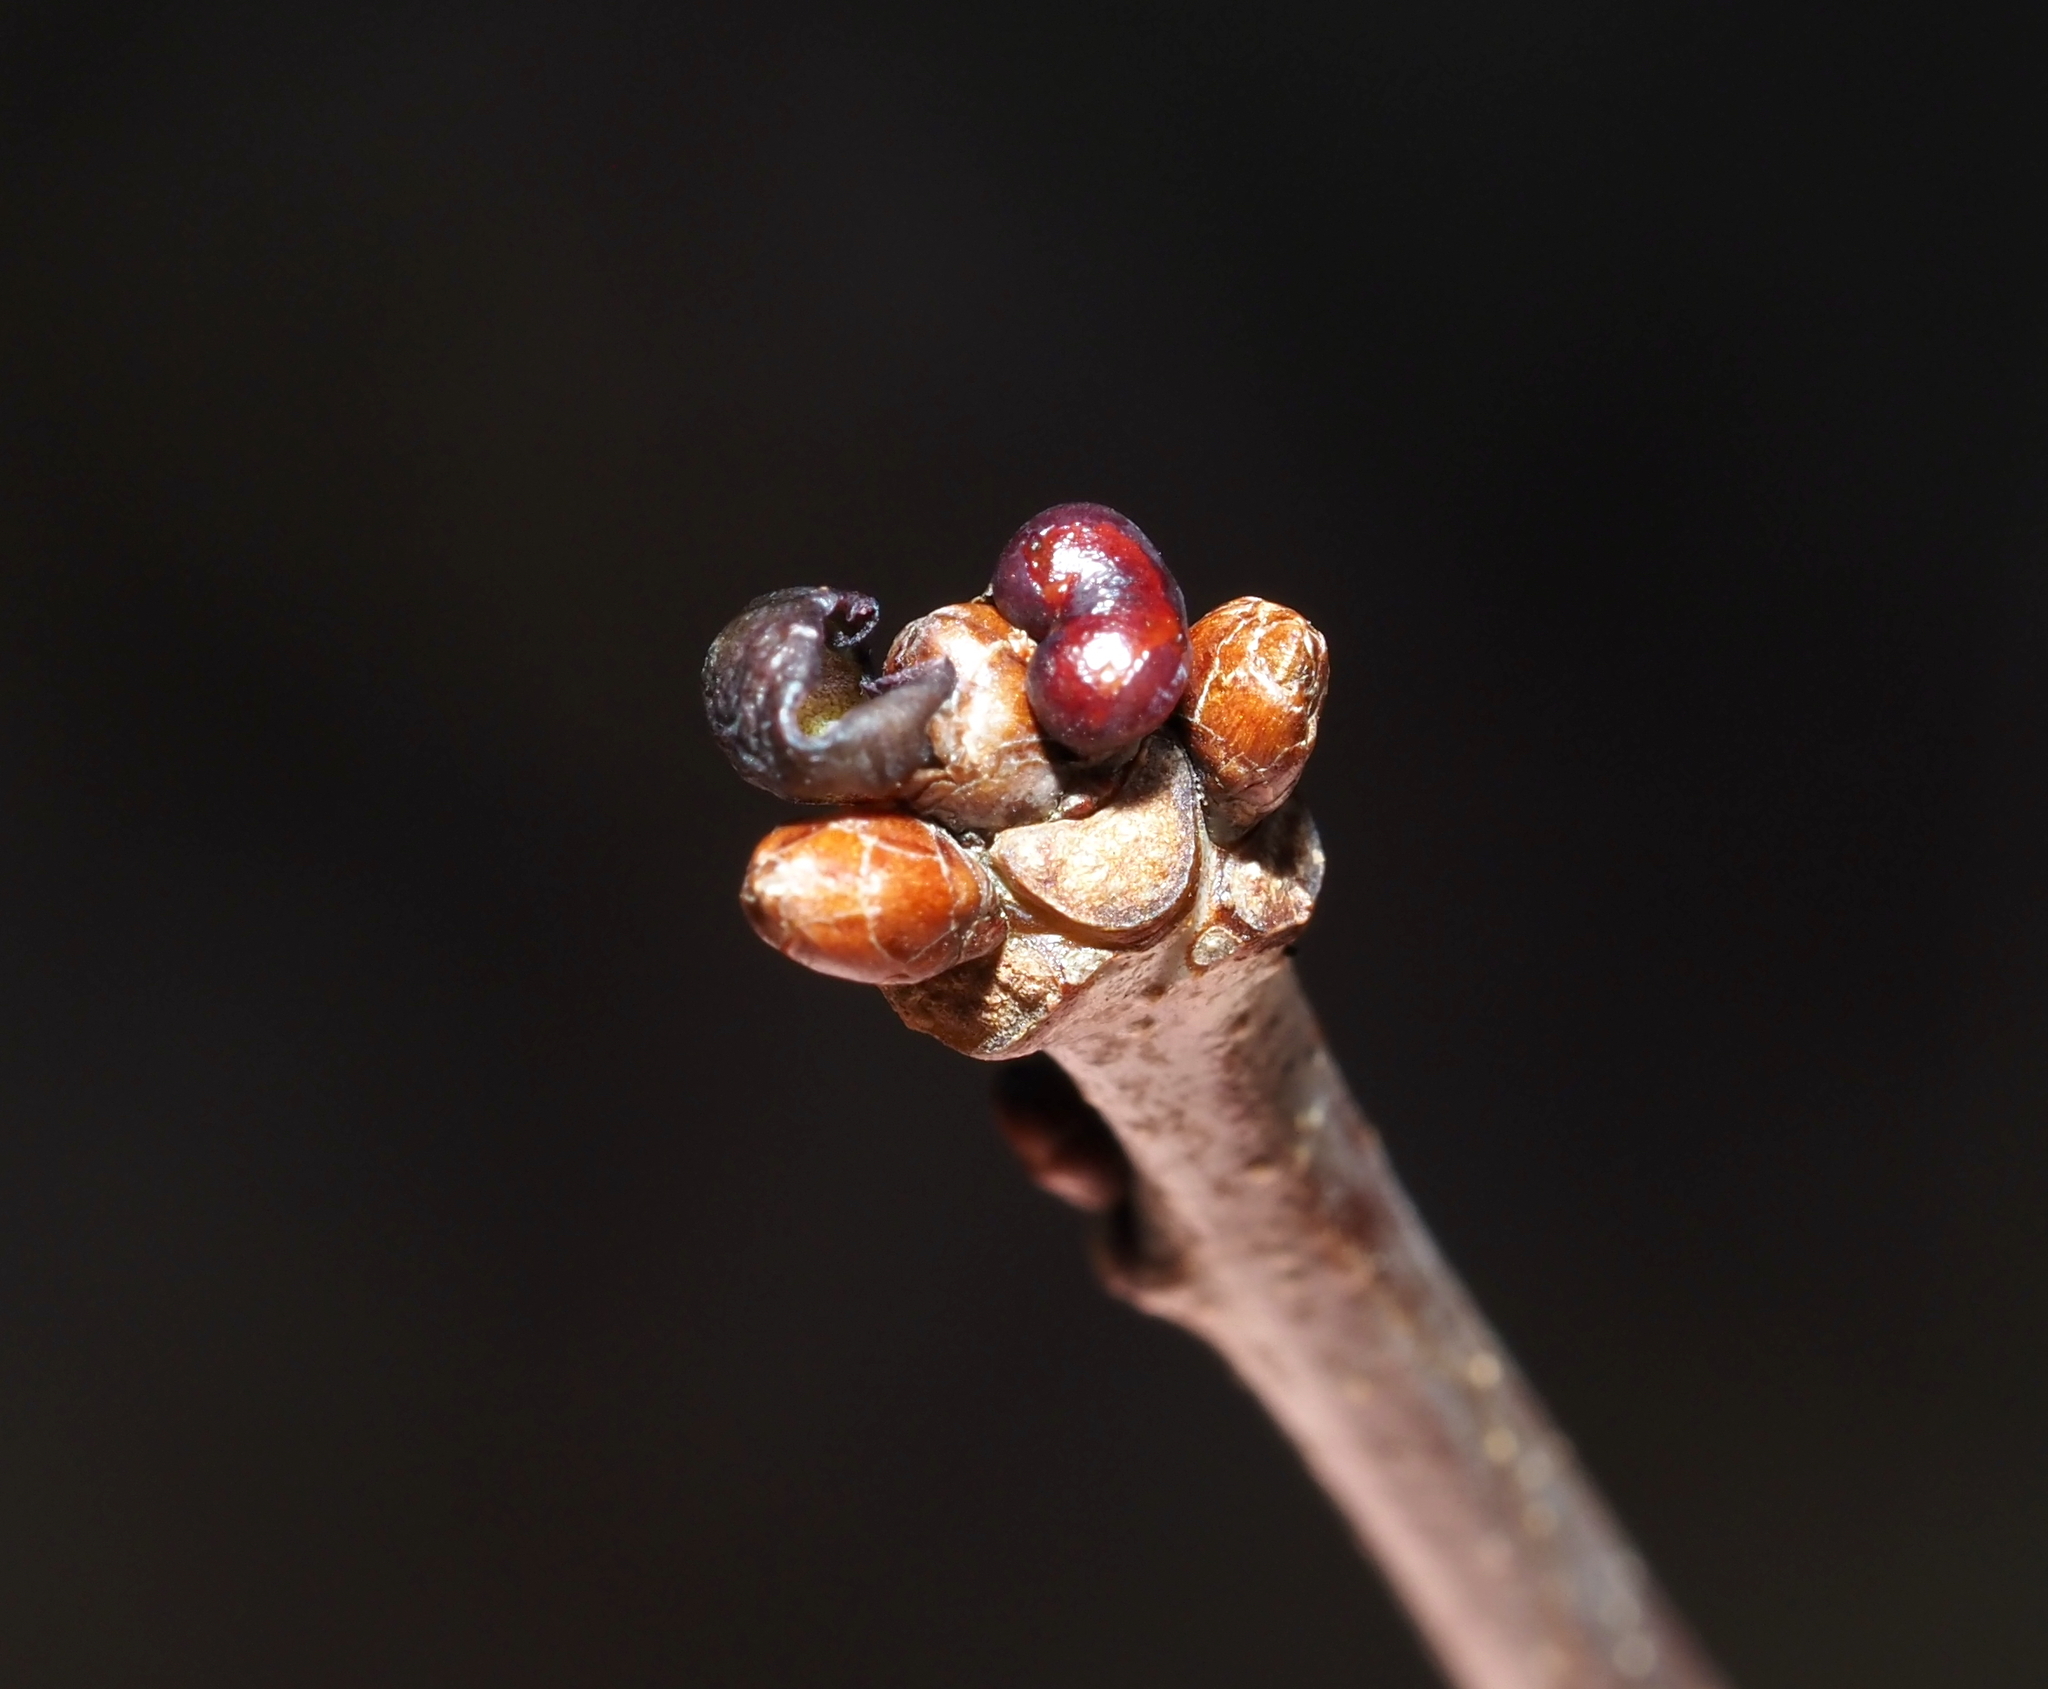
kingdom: Animalia
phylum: Arthropoda
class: Insecta
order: Hymenoptera
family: Cynipidae
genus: Neuroterus
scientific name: Neuroterus
